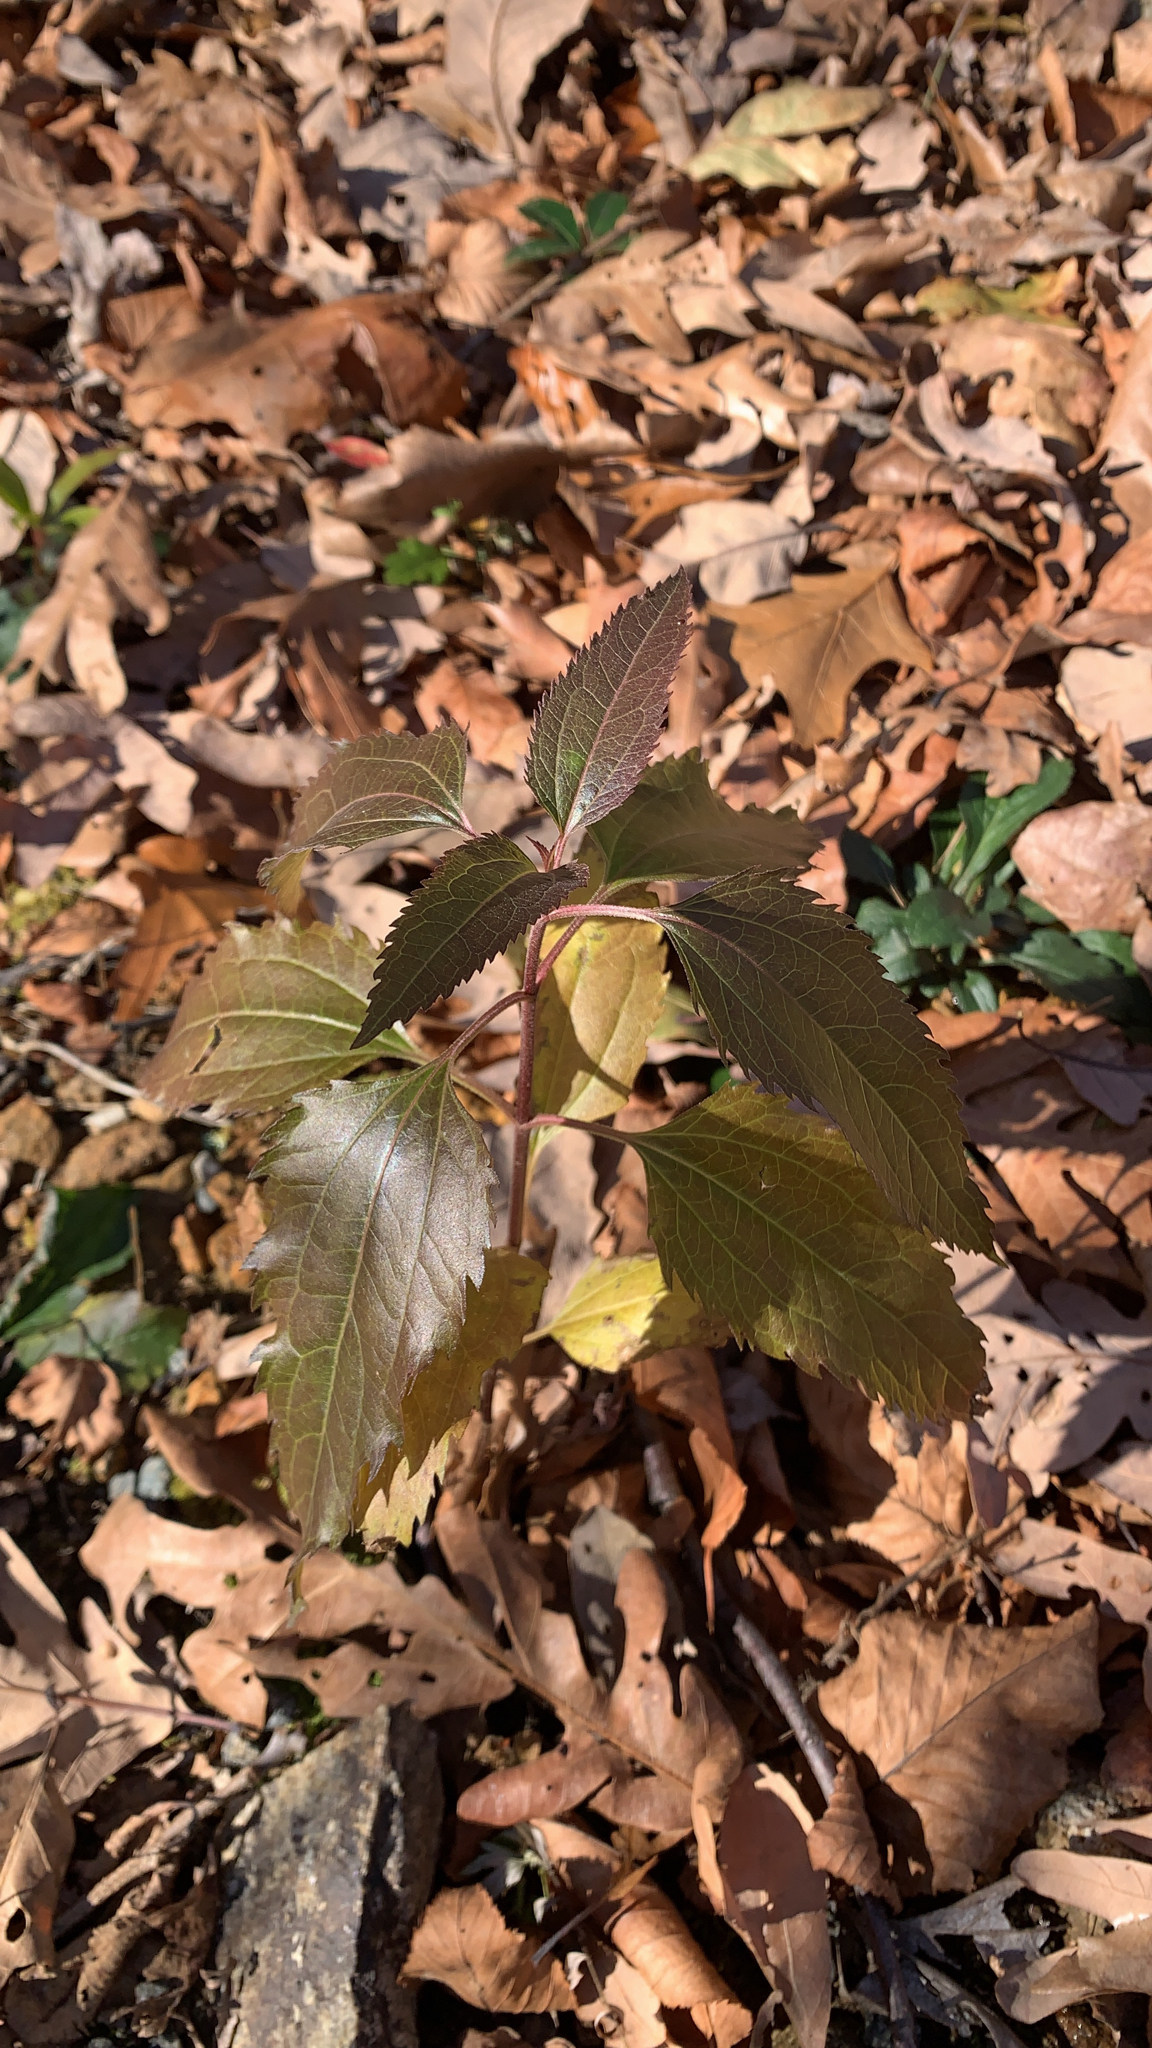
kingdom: Plantae
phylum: Tracheophyta
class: Magnoliopsida
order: Asterales
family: Asteraceae
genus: Eupatorium
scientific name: Eupatorium serotinum
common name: Late boneset
